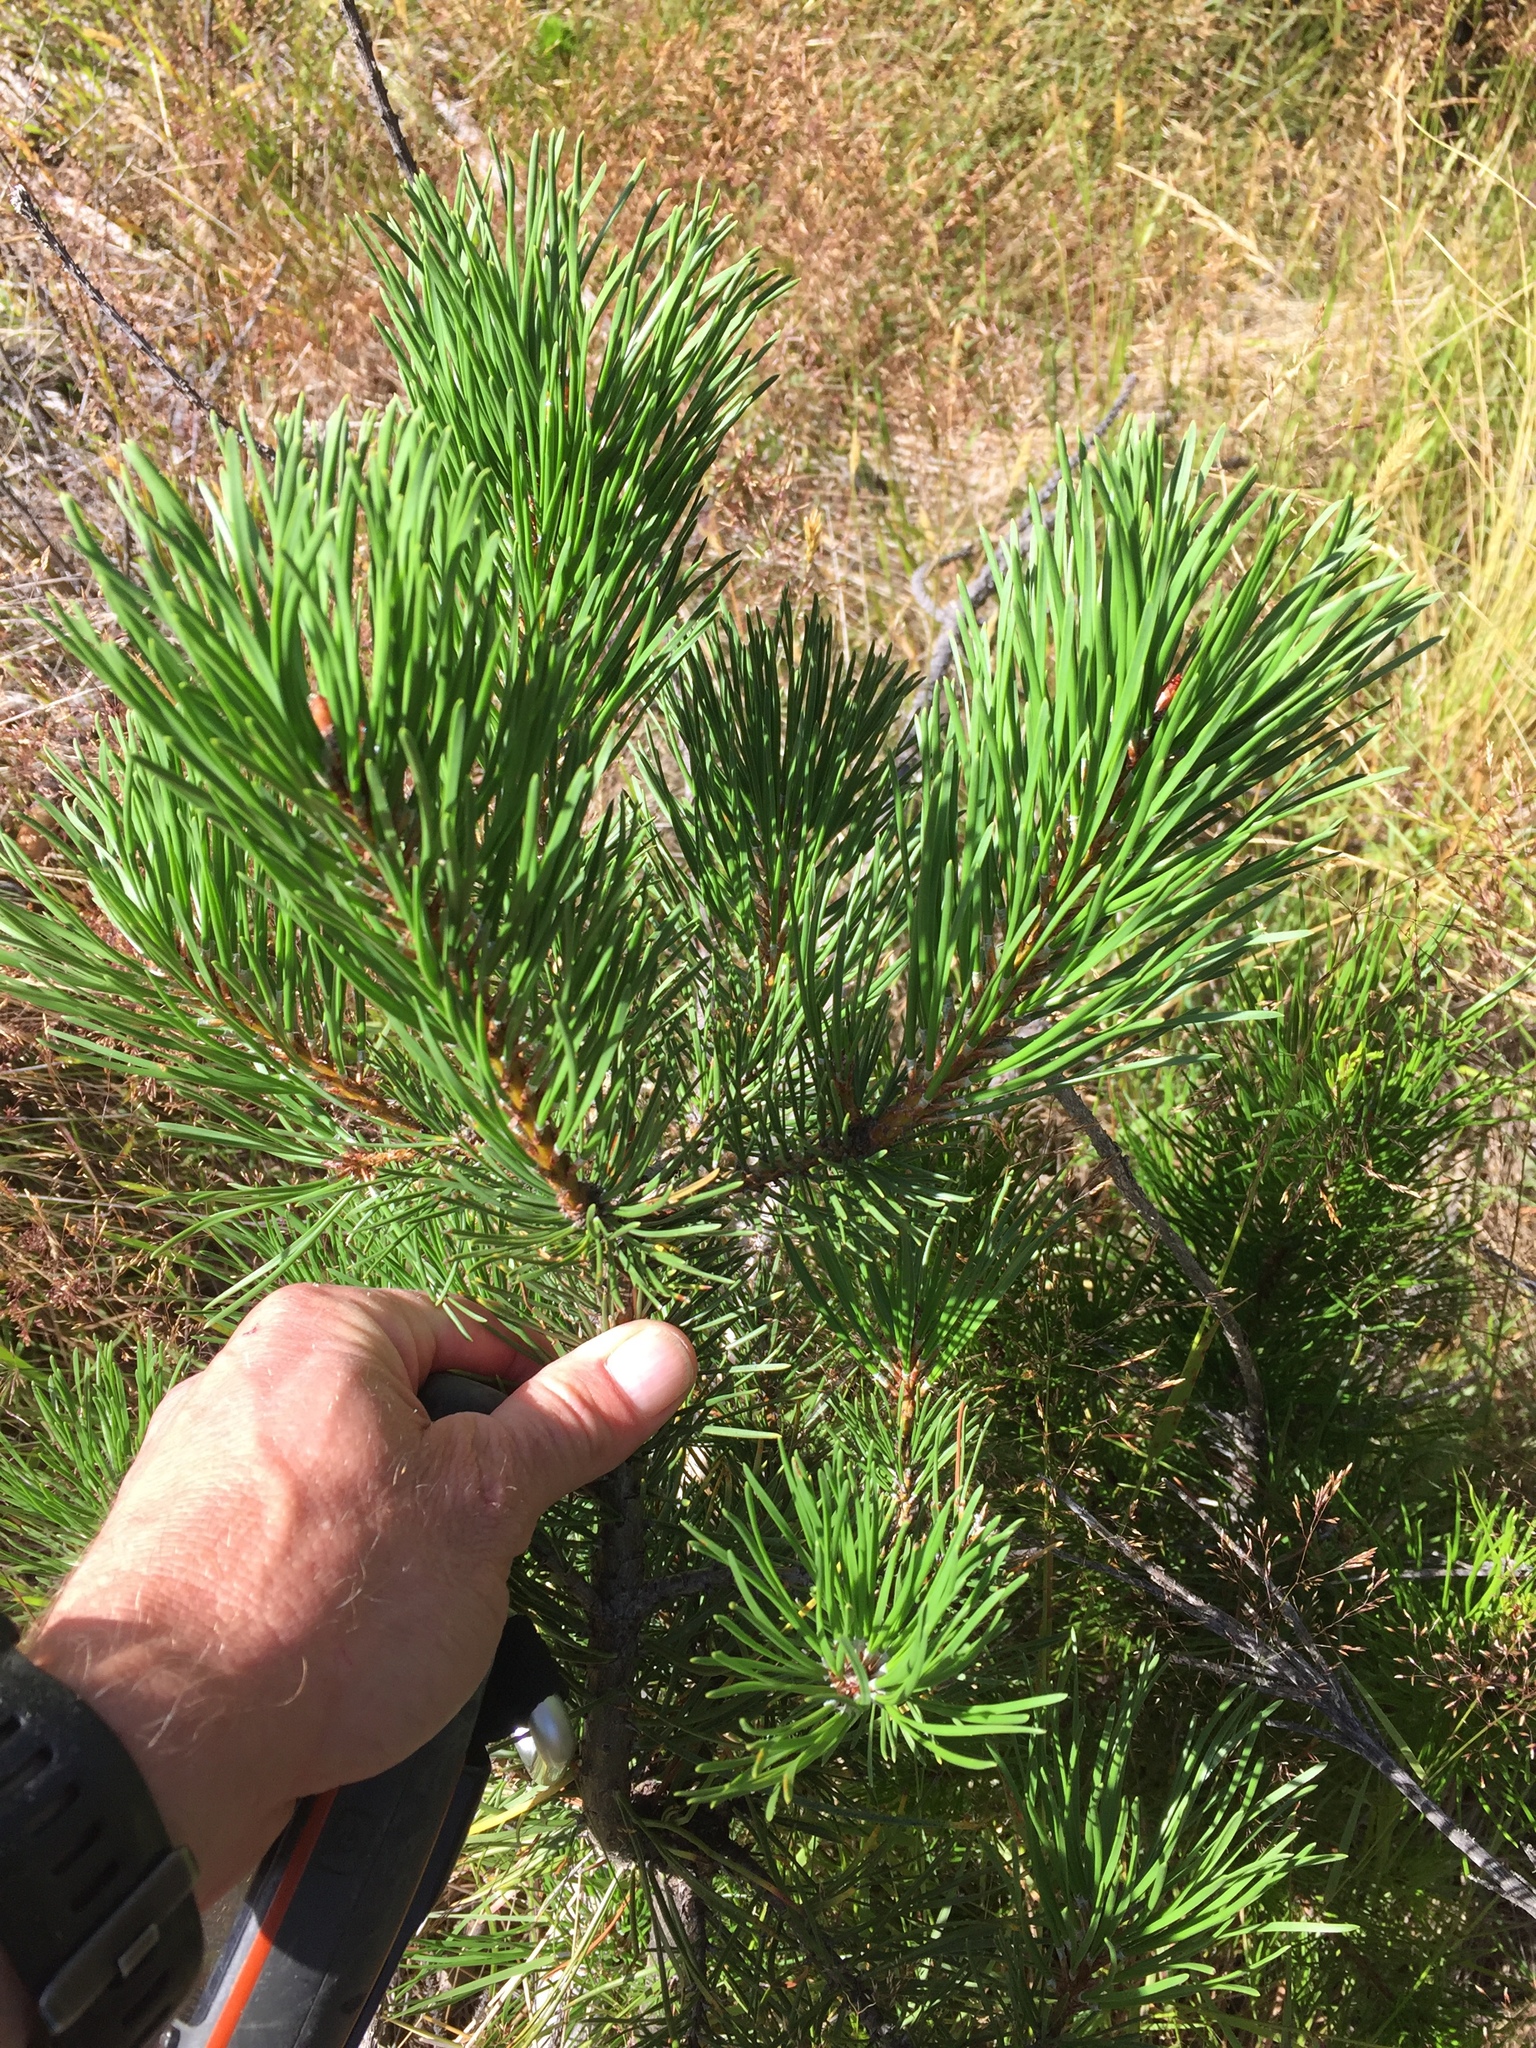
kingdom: Plantae
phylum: Tracheophyta
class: Pinopsida
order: Pinales
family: Pinaceae
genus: Pinus
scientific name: Pinus contorta
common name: Lodgepole pine
